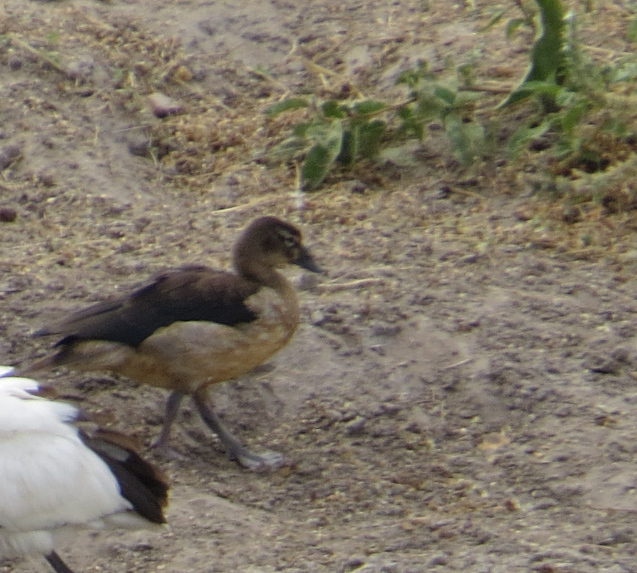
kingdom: Animalia
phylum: Chordata
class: Aves
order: Anseriformes
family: Anatidae
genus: Alopochen
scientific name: Alopochen aegyptiaca
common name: Egyptian goose
